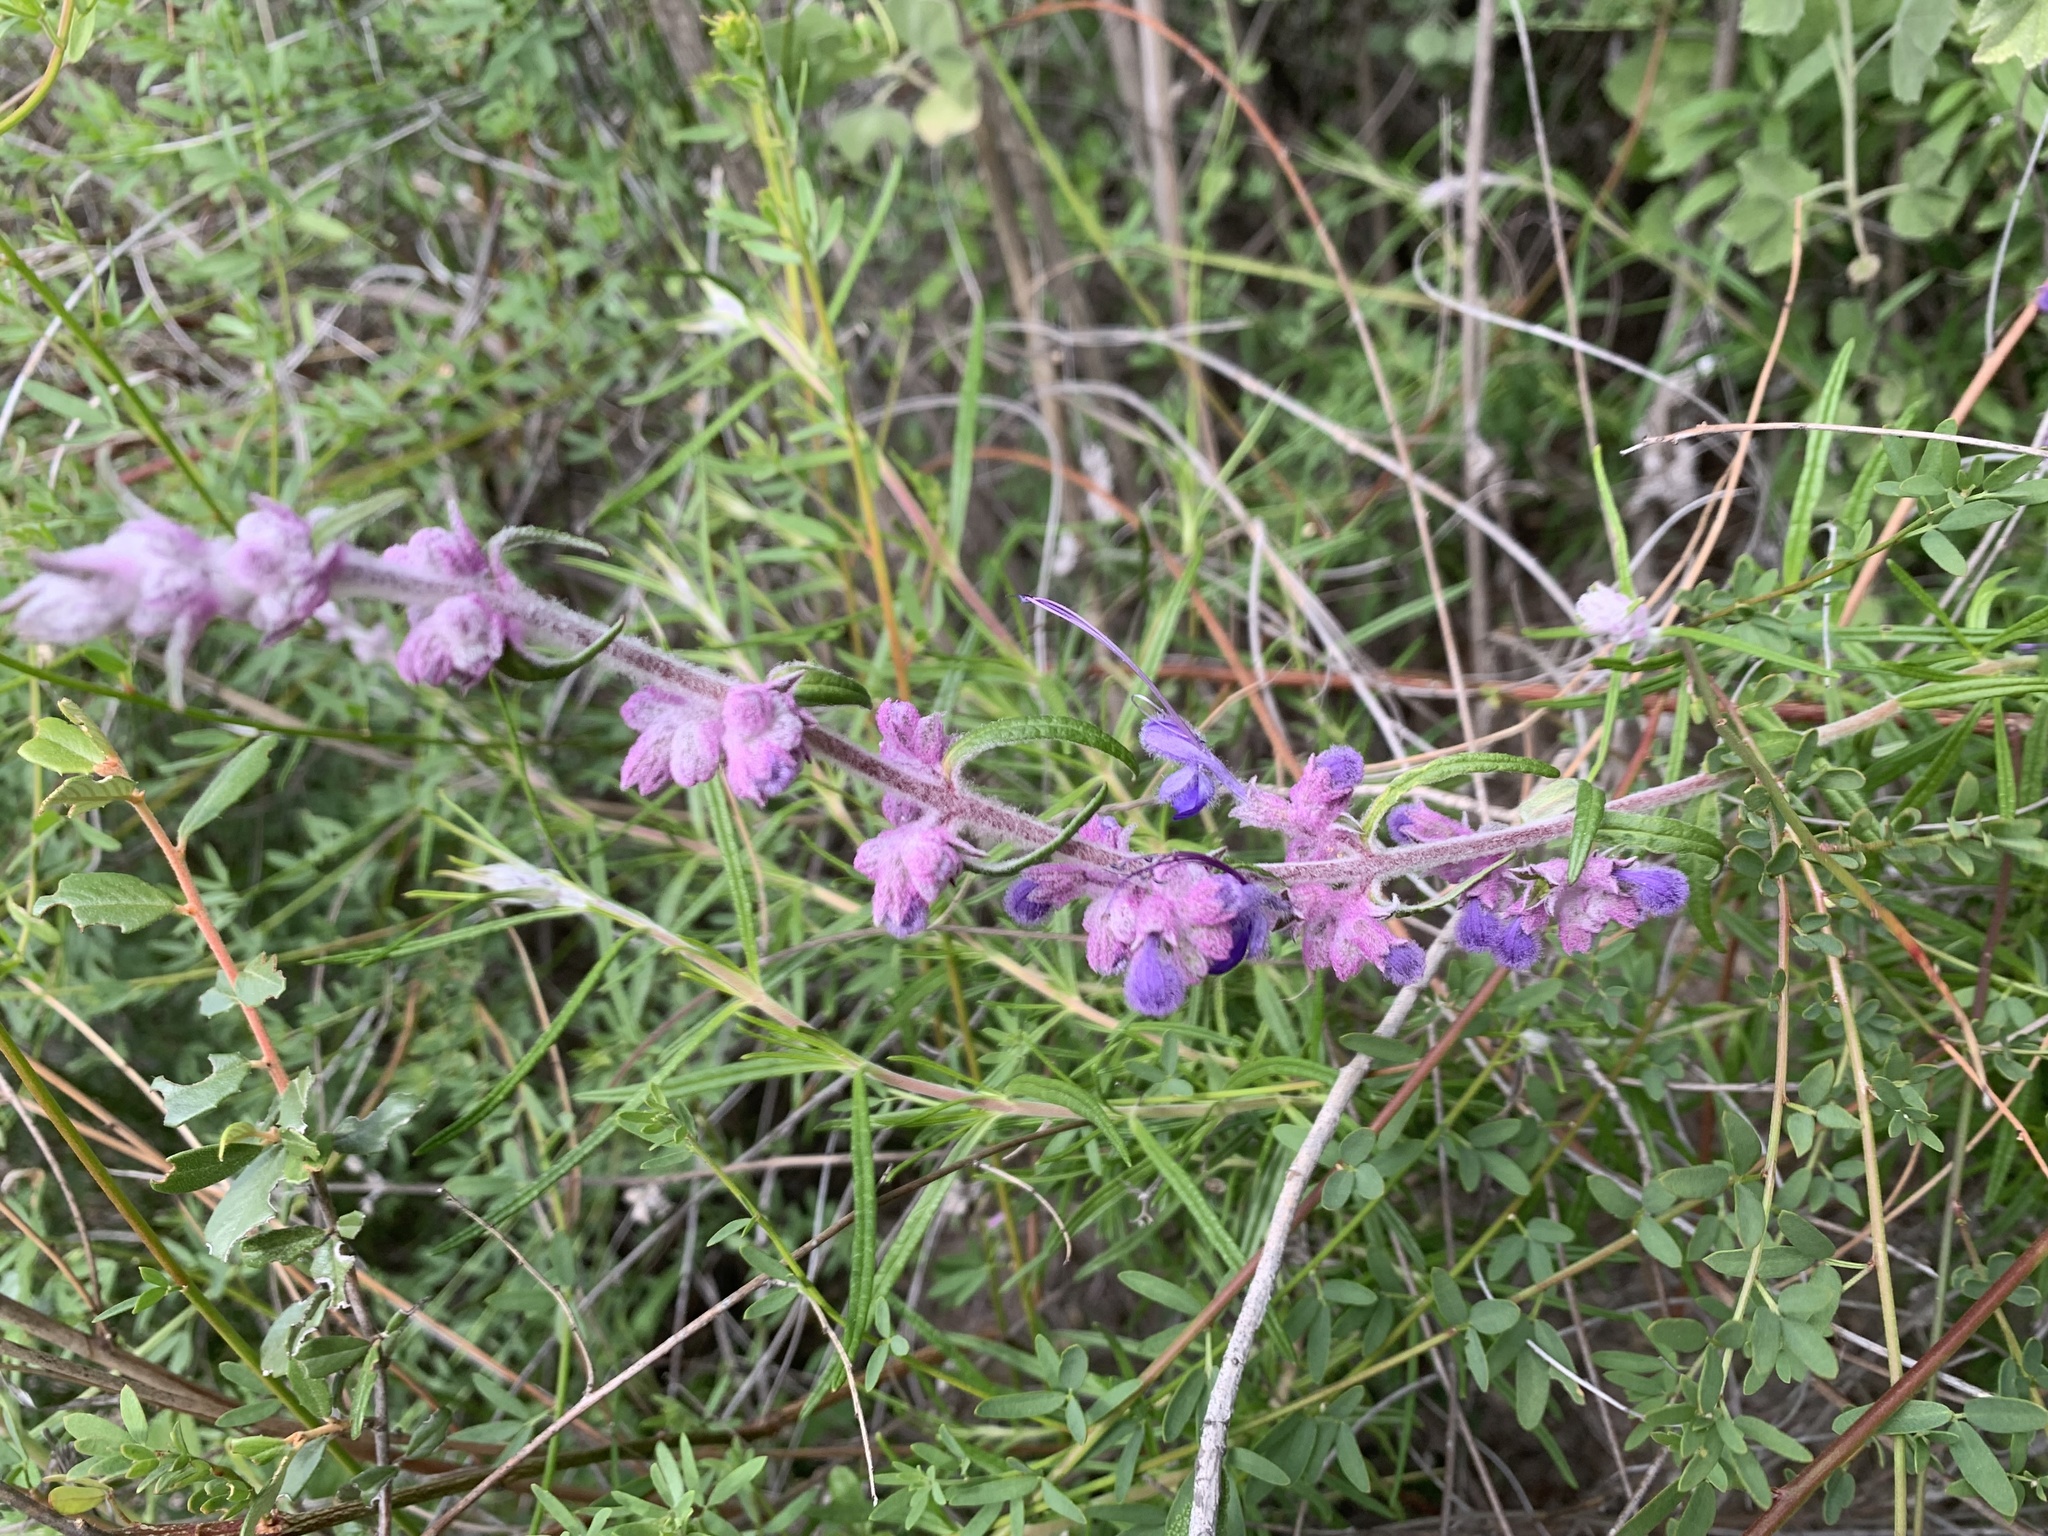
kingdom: Plantae
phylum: Tracheophyta
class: Magnoliopsida
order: Lamiales
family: Lamiaceae
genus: Trichostema
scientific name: Trichostema lanatum
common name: Woolly bluecurls
